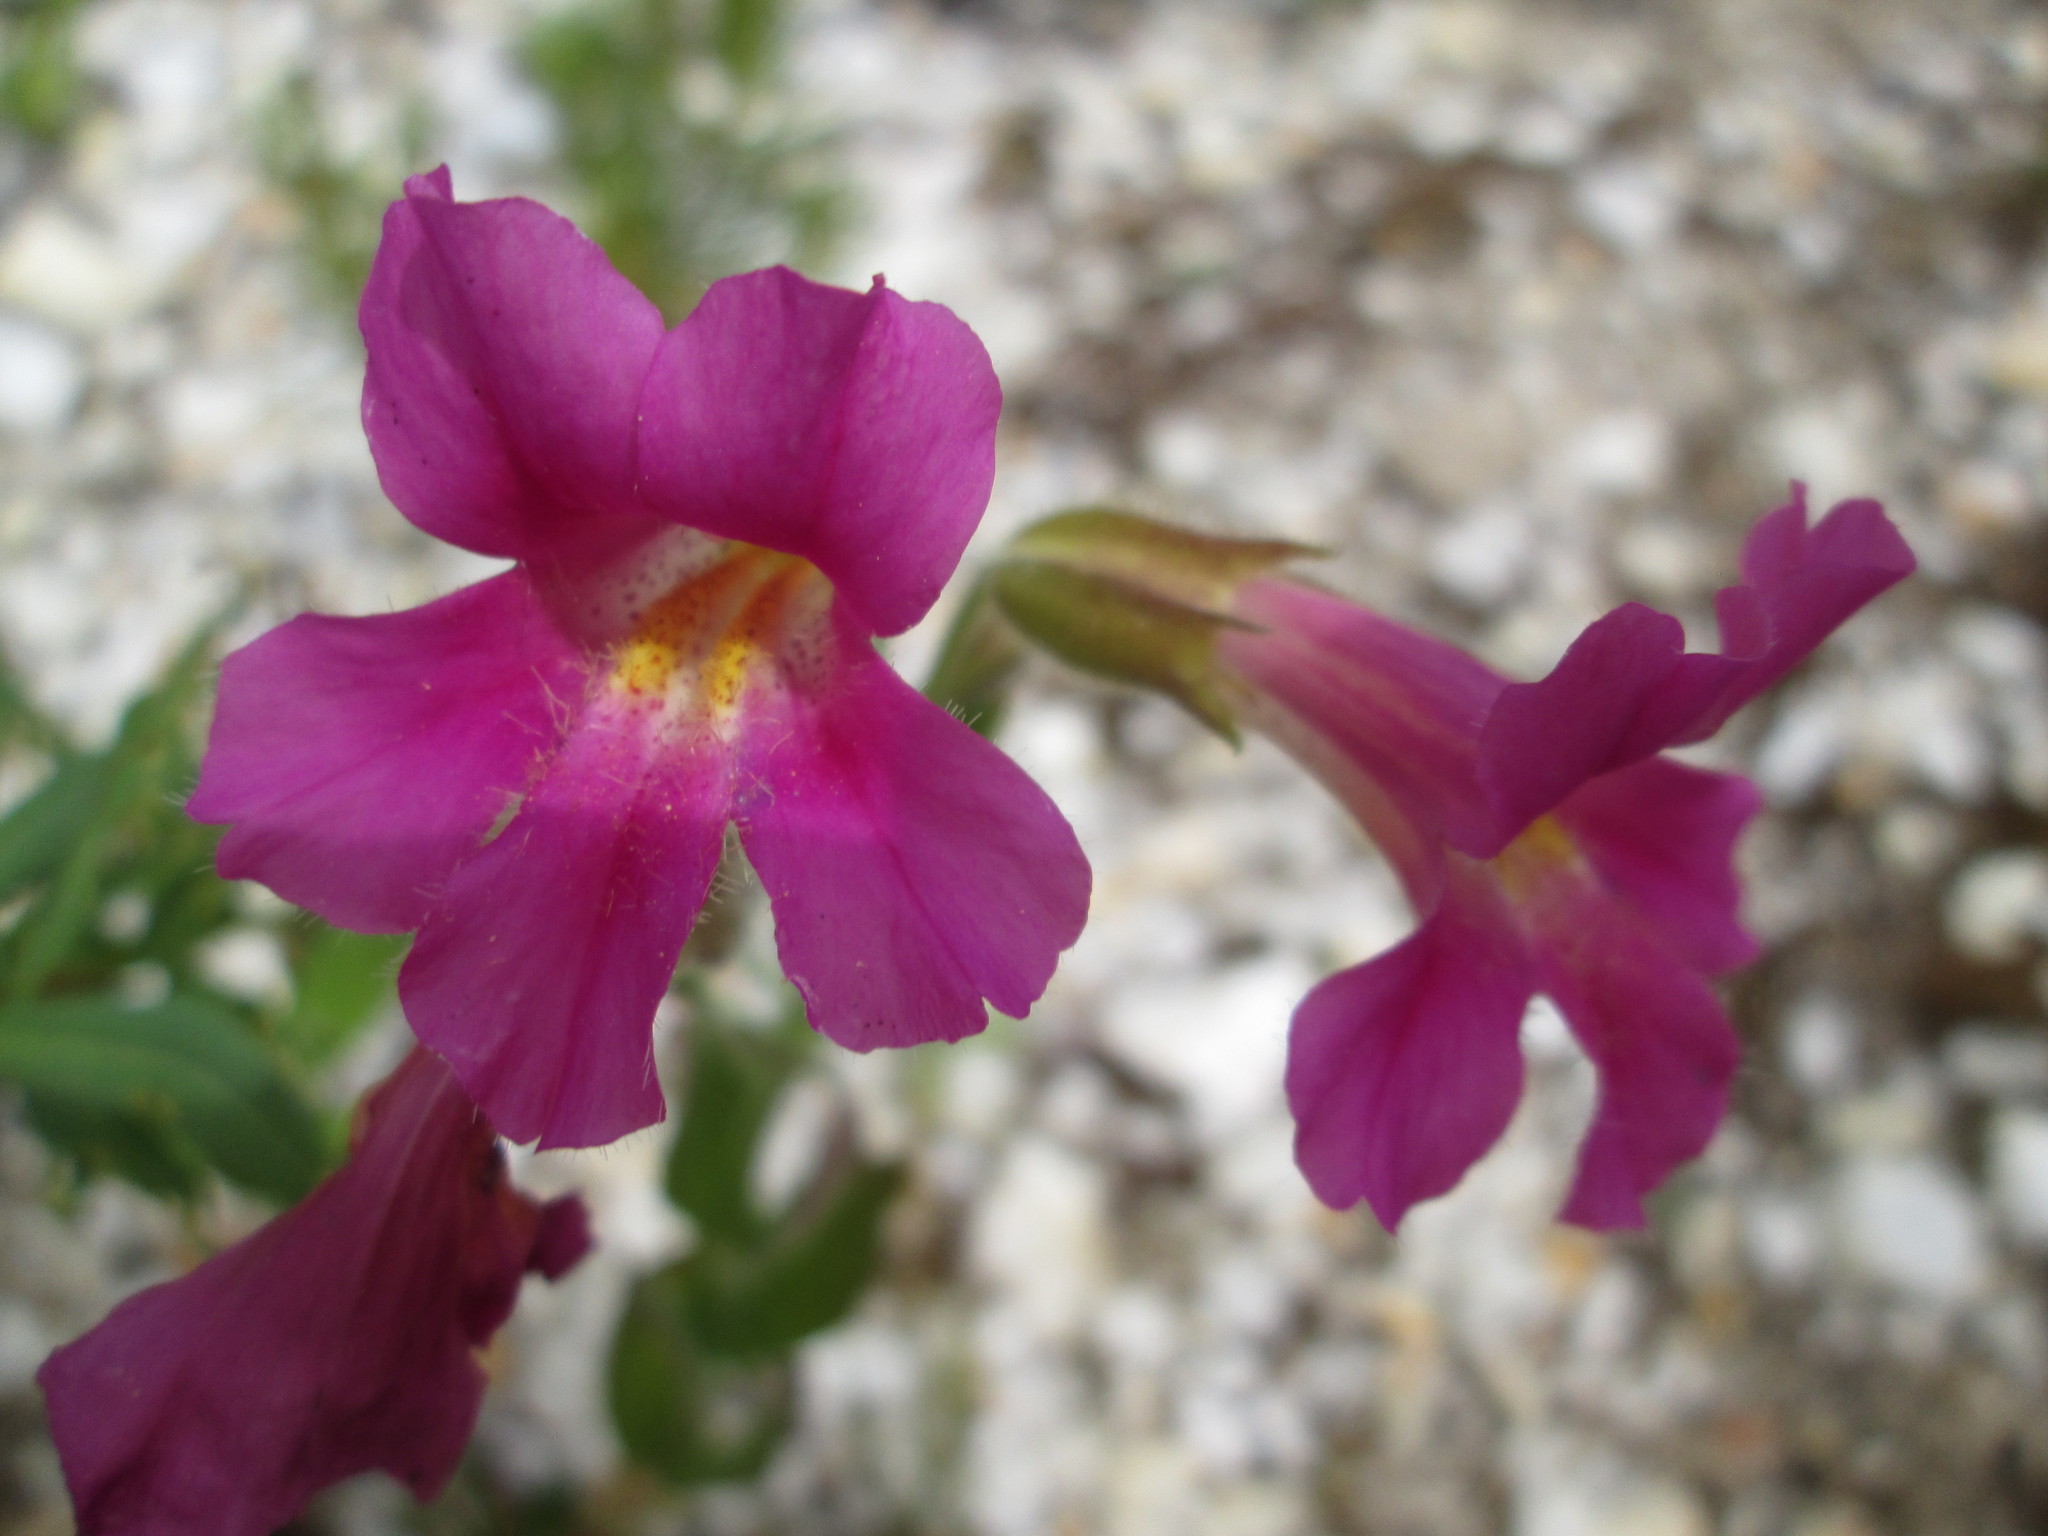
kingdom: Plantae
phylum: Tracheophyta
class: Magnoliopsida
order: Lamiales
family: Phrymaceae
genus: Erythranthe
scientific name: Erythranthe lewisii
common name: Lewis's monkey-flower
